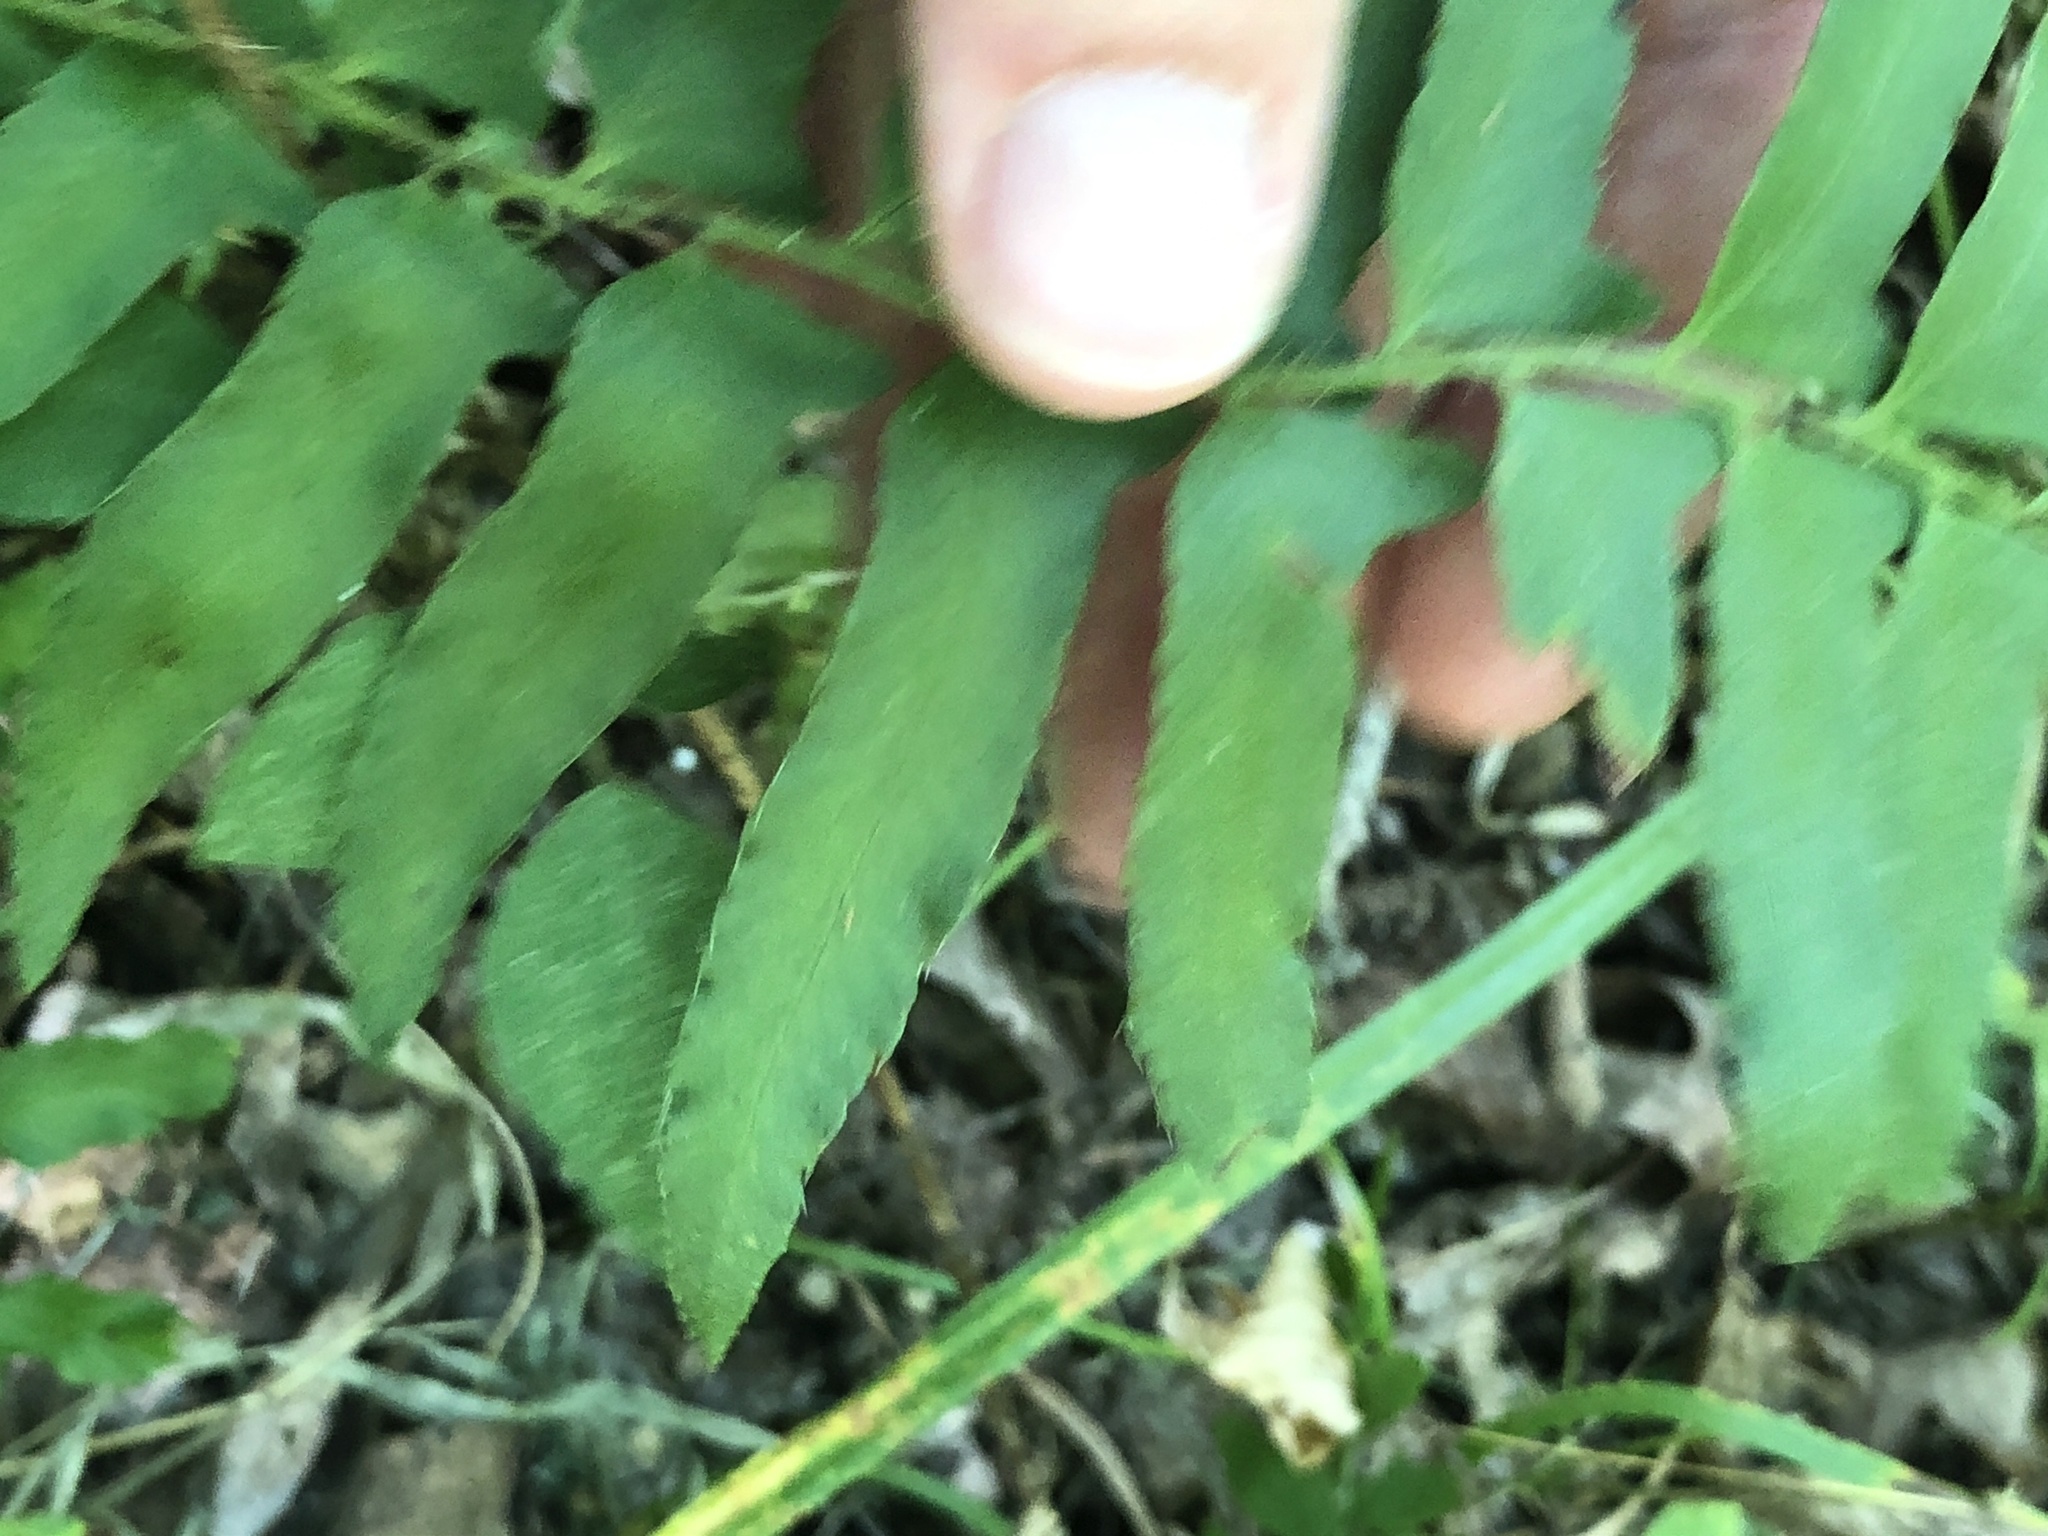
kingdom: Plantae
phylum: Tracheophyta
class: Polypodiopsida
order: Polypodiales
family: Dryopteridaceae
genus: Polystichum
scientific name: Polystichum acrostichoides
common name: Christmas fern
